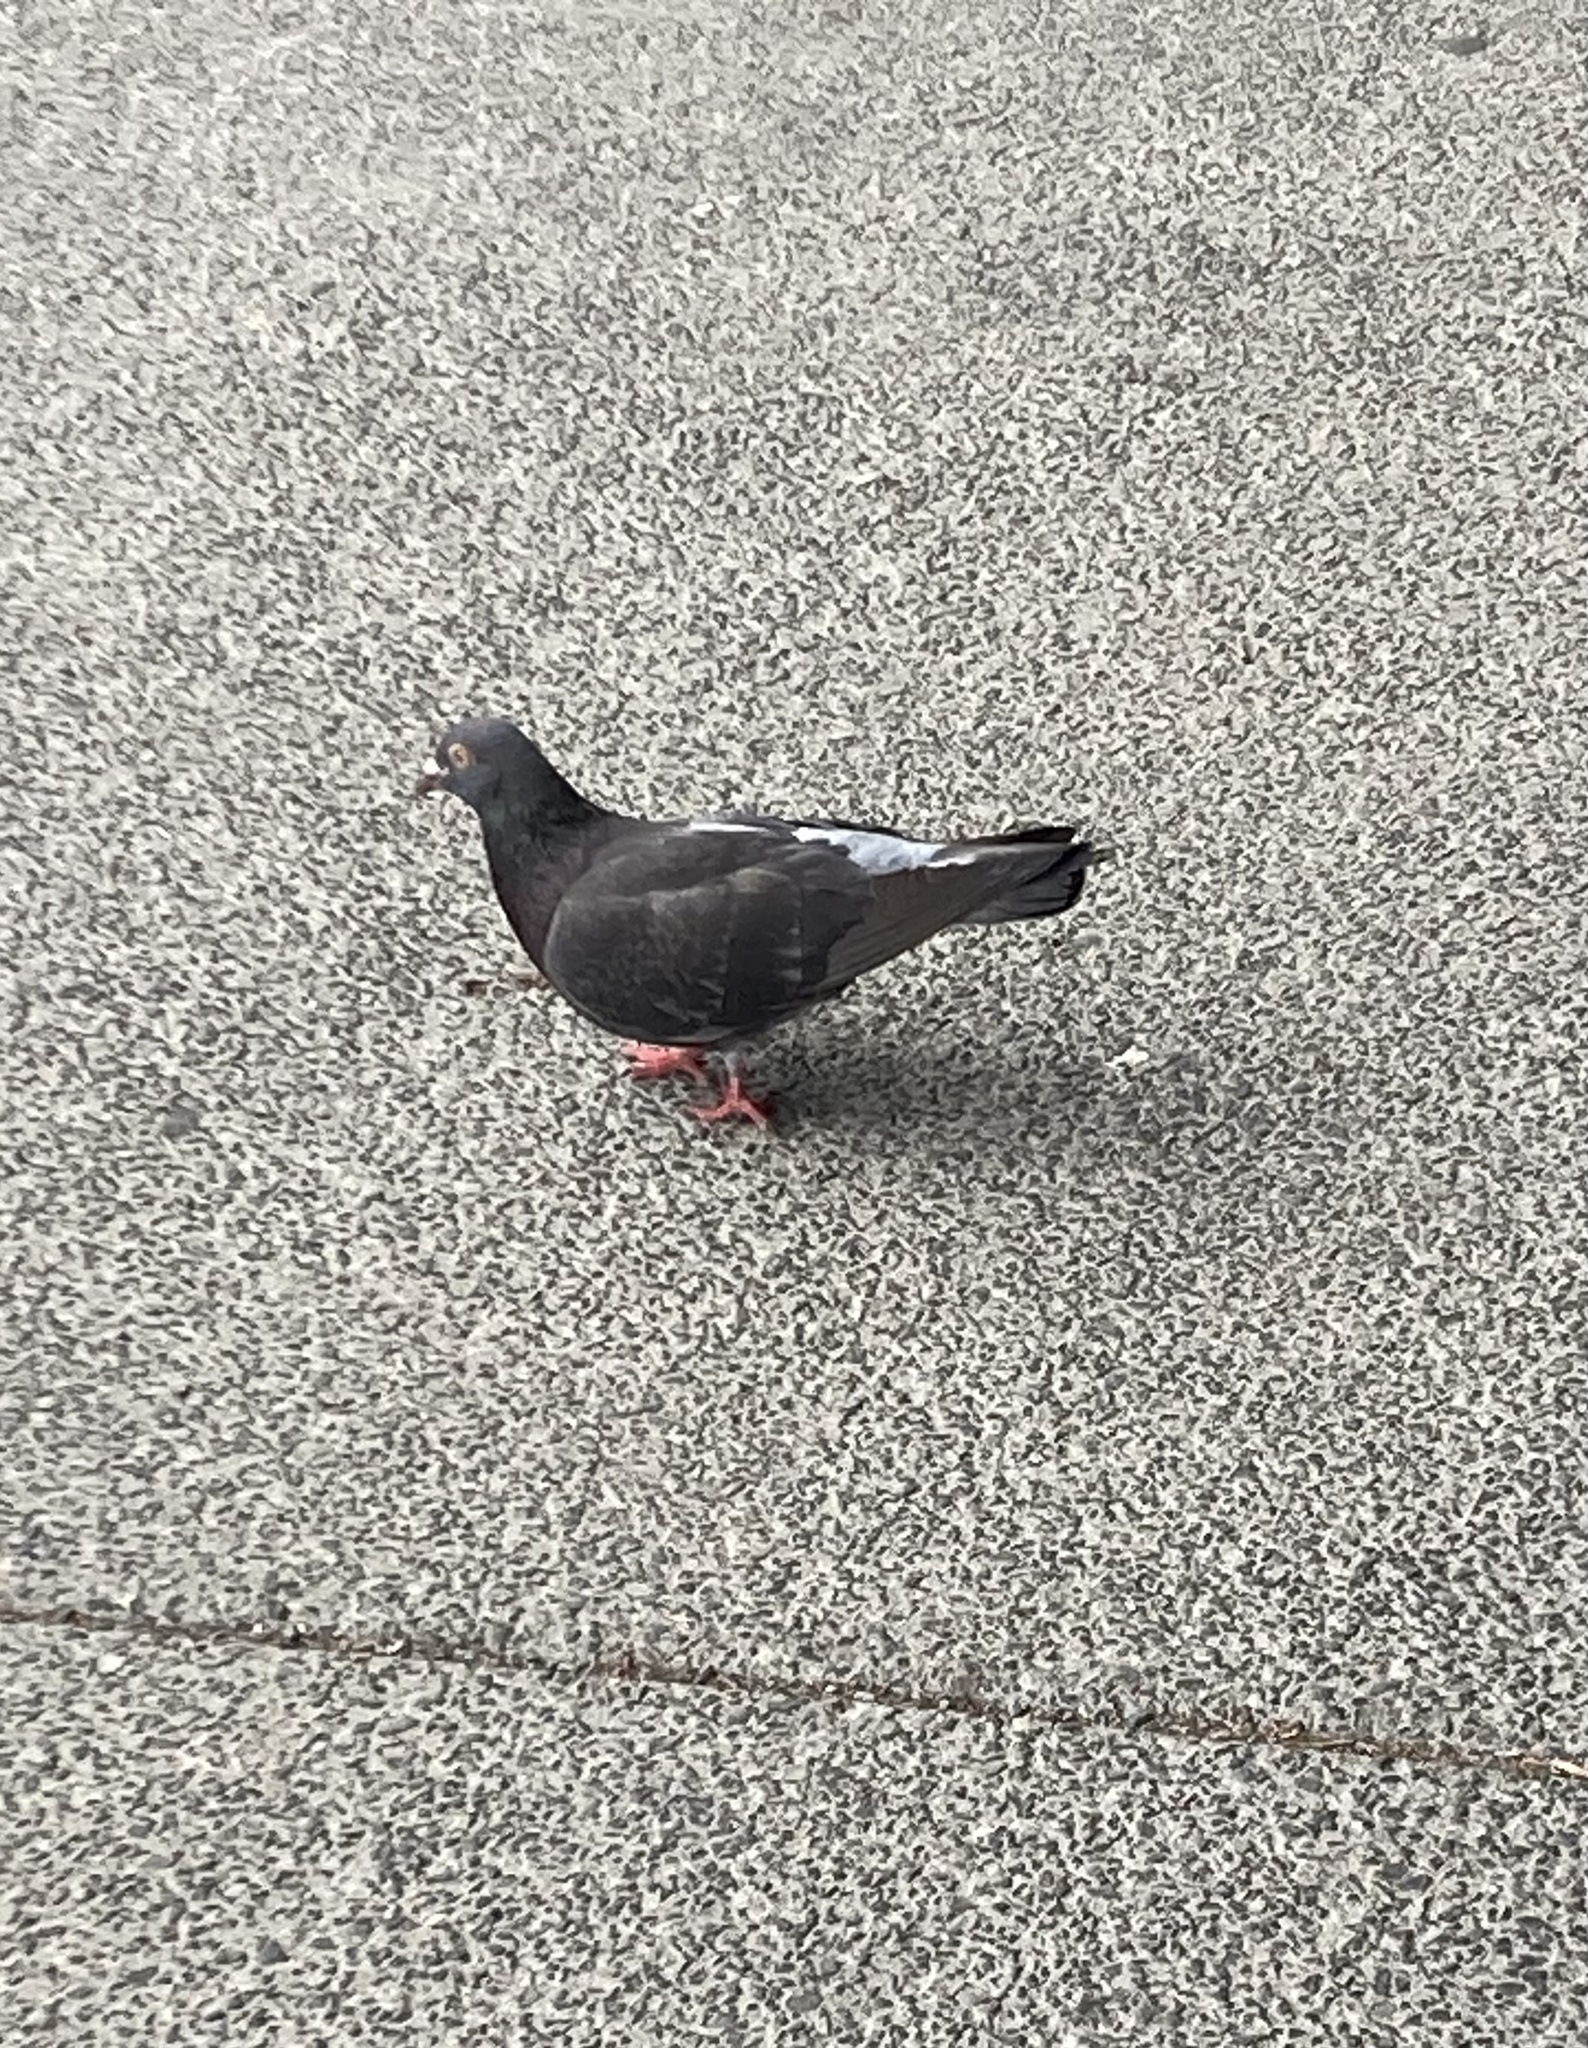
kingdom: Animalia
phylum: Chordata
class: Aves
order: Columbiformes
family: Columbidae
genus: Columba
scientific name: Columba livia
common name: Rock pigeon
